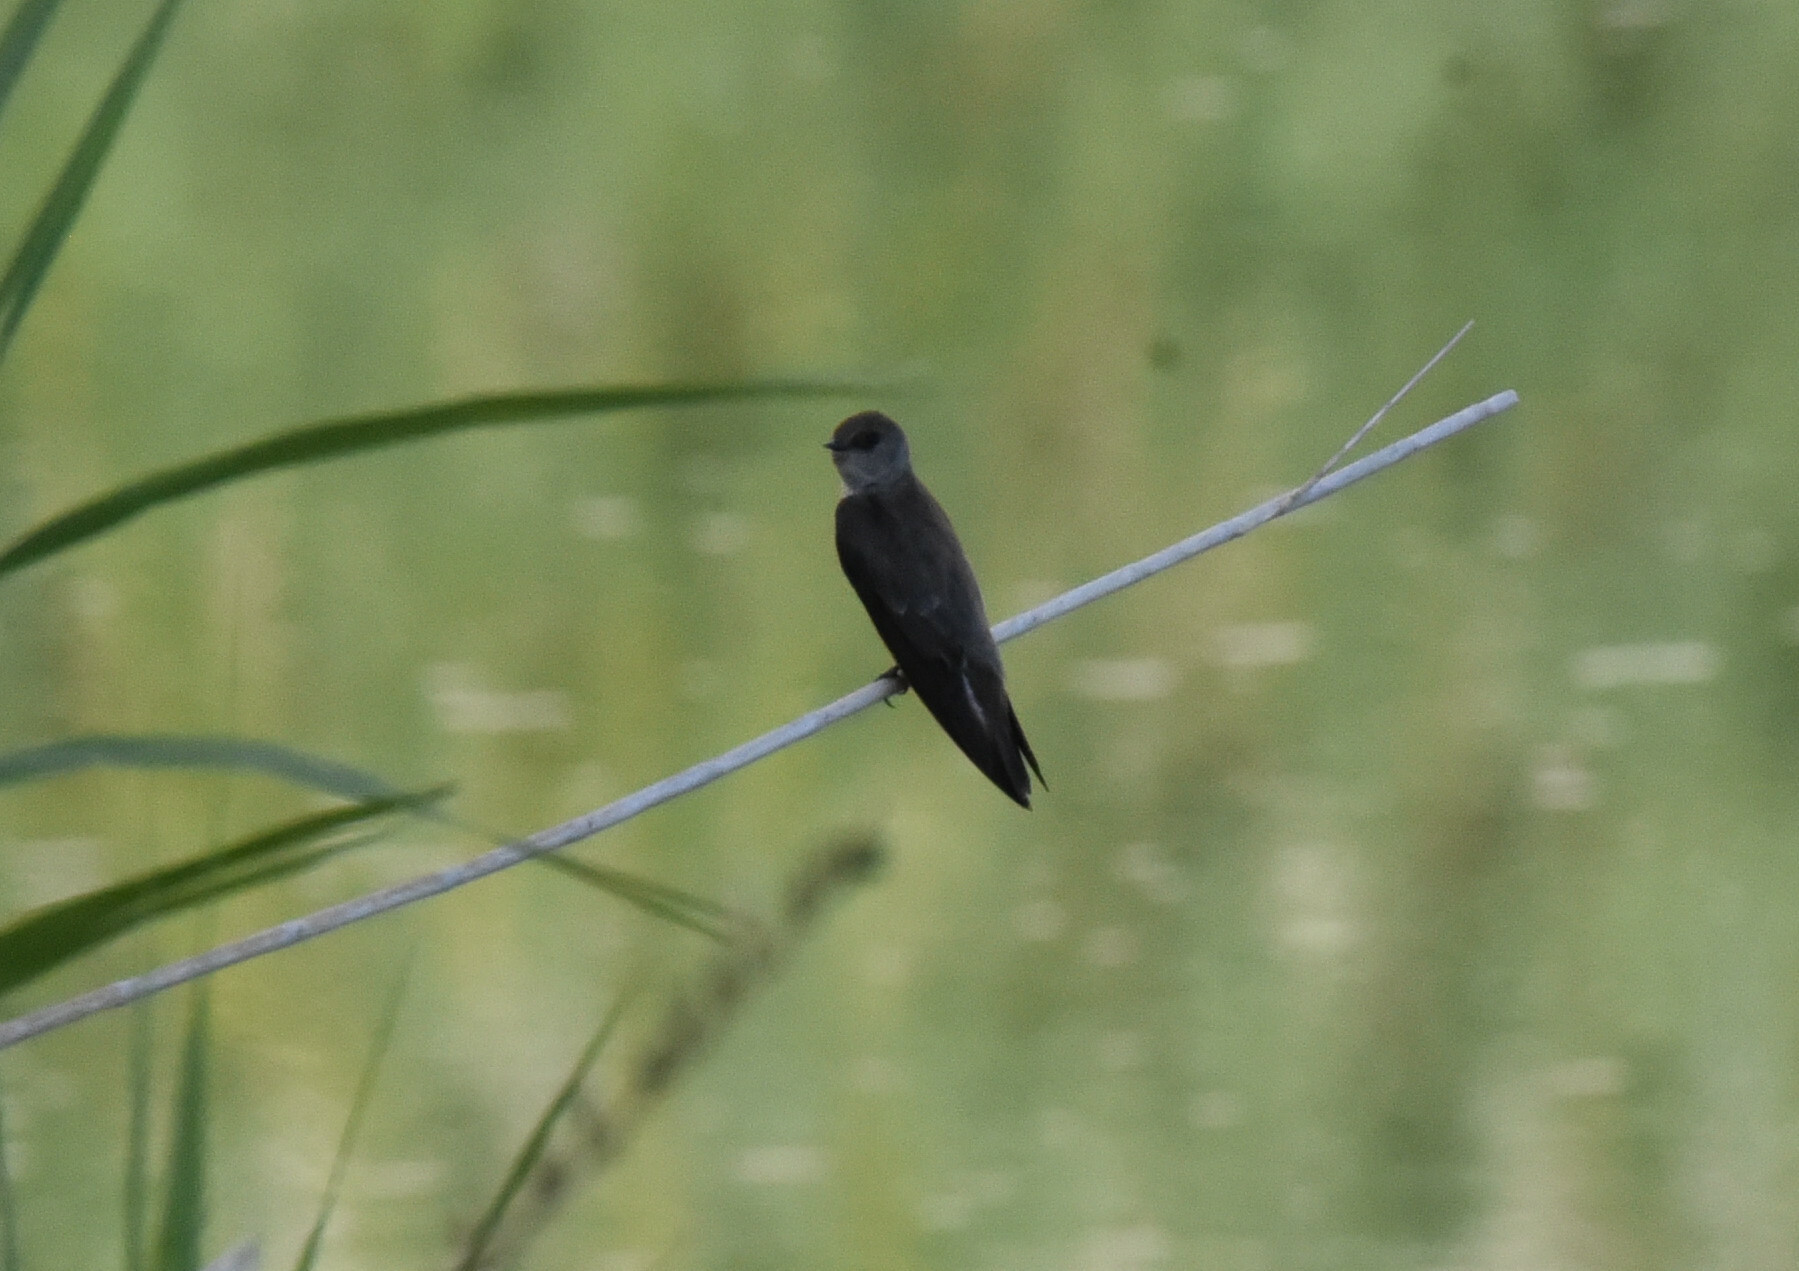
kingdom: Animalia
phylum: Chordata
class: Aves
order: Passeriformes
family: Hirundinidae
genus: Stelgidopteryx
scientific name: Stelgidopteryx serripennis
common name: Northern rough-winged swallow
